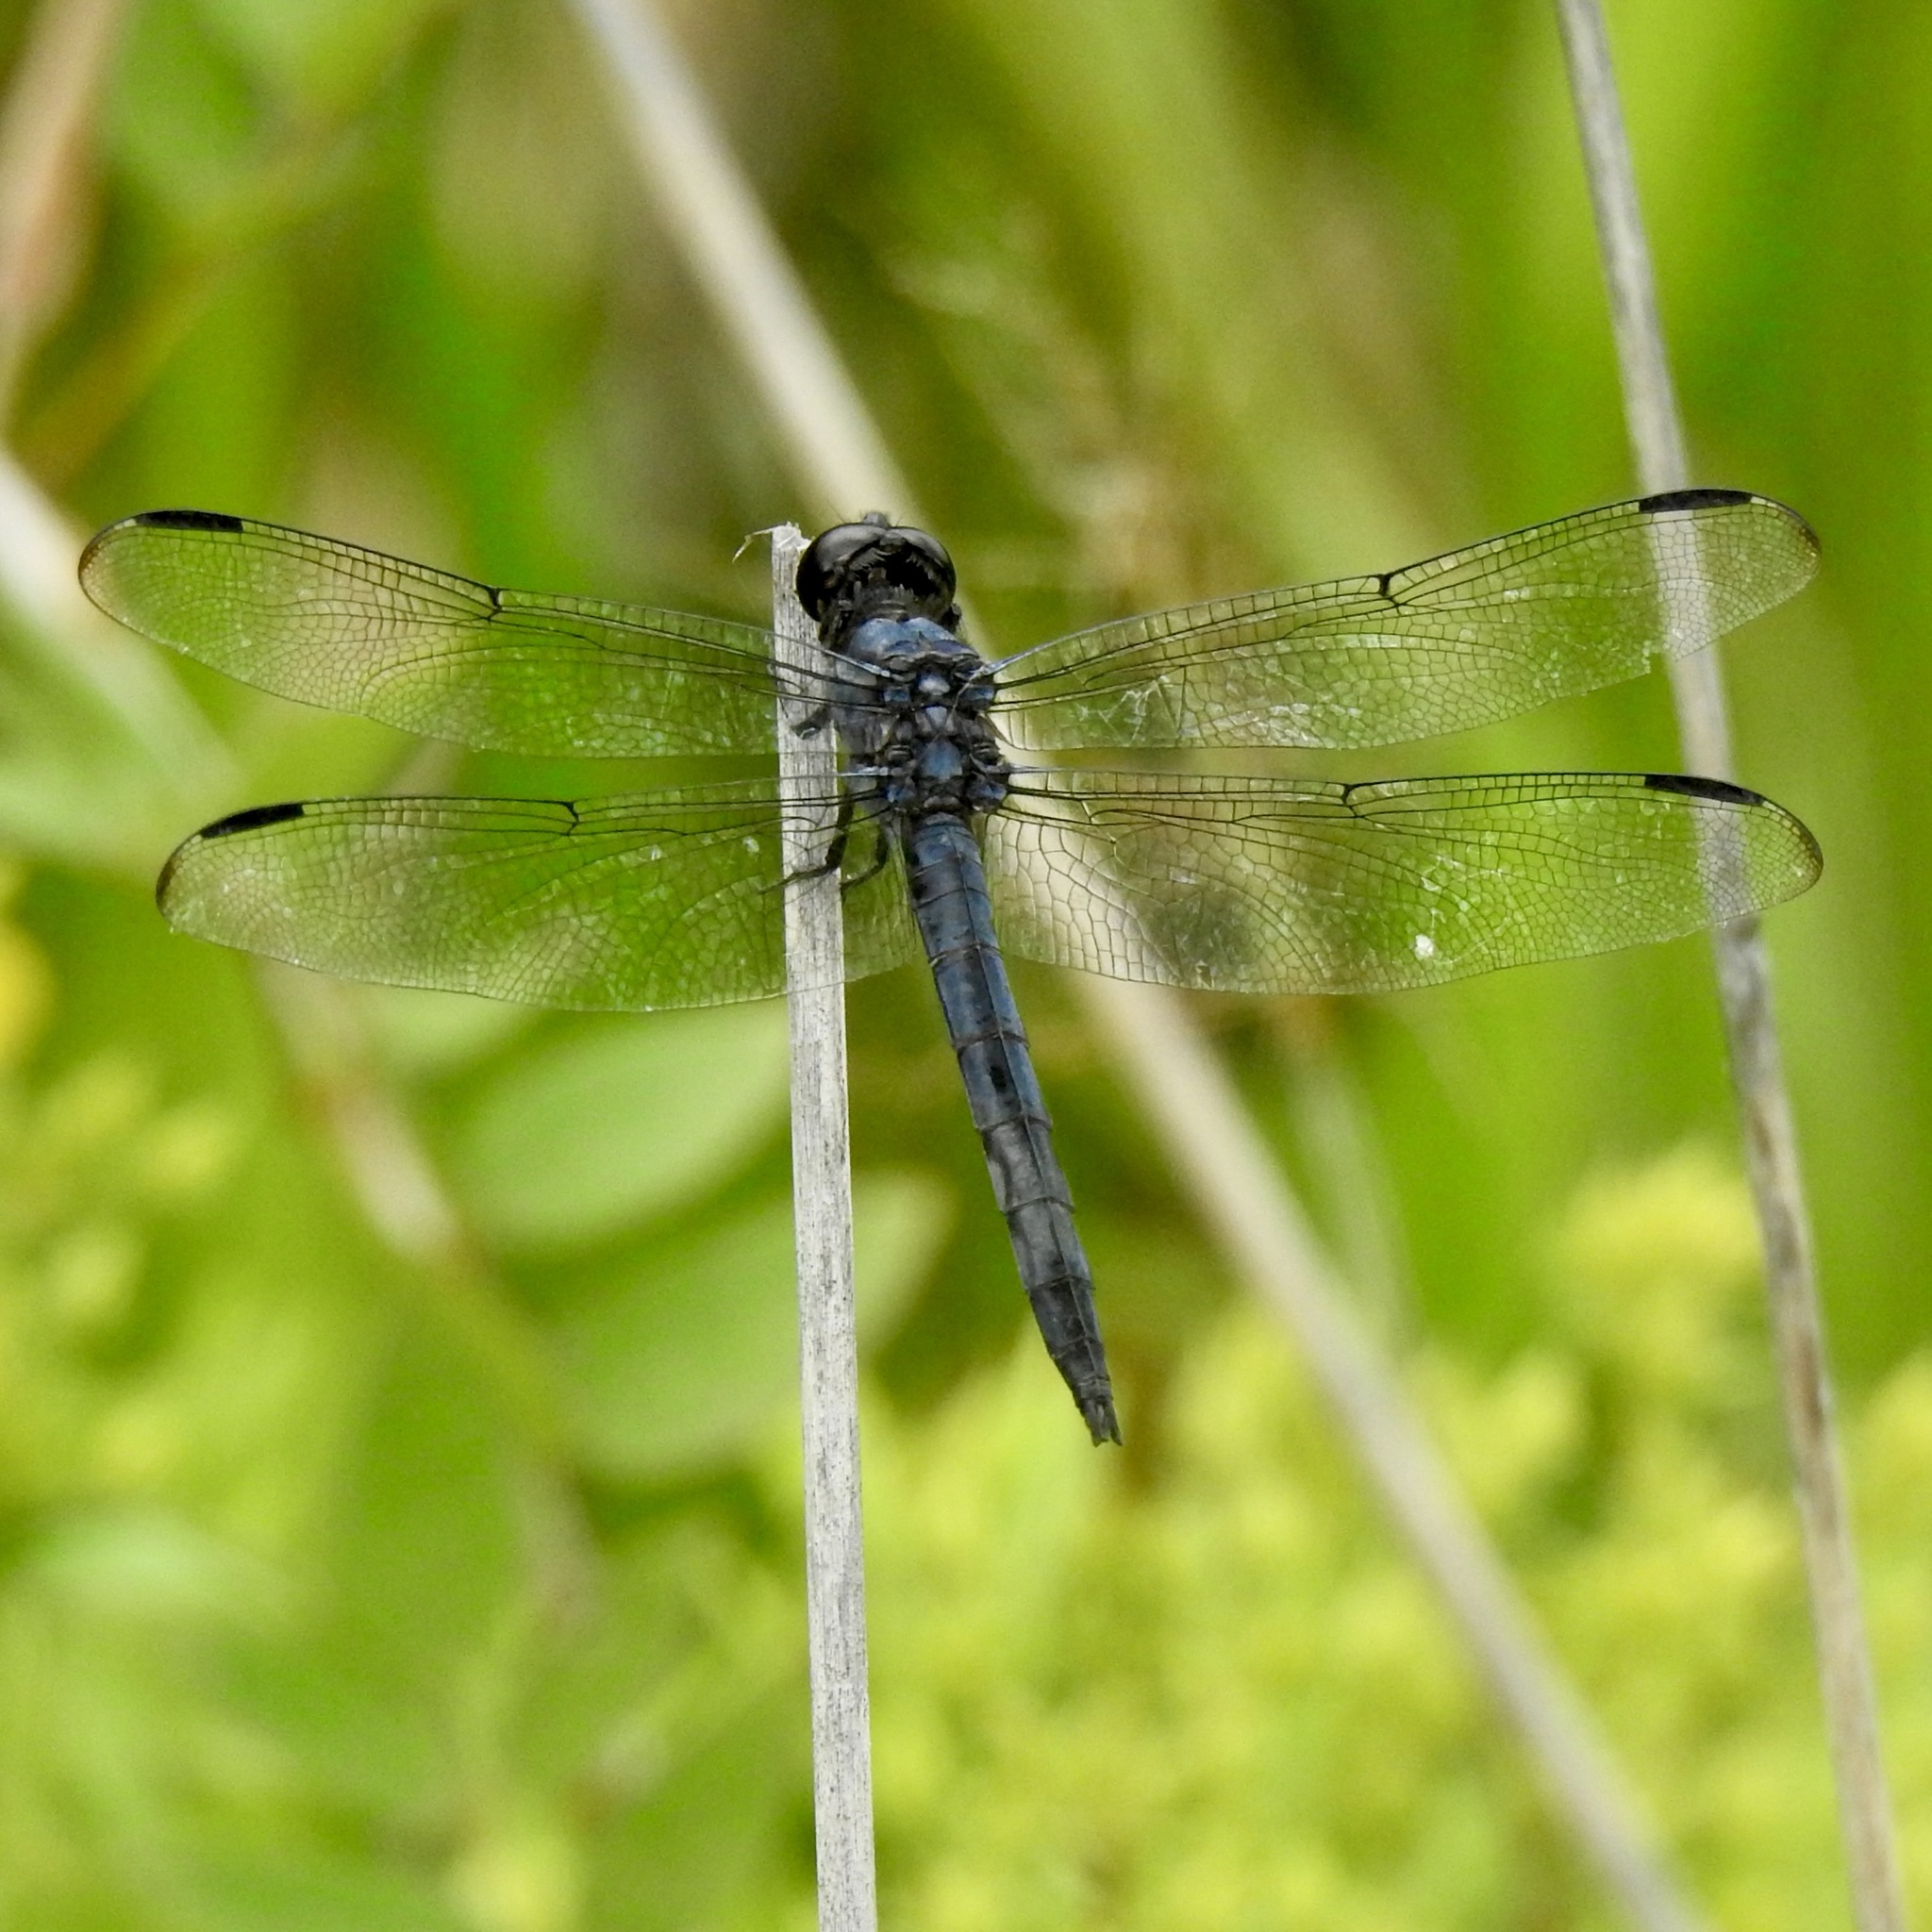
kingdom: Animalia
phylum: Arthropoda
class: Insecta
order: Odonata
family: Libellulidae
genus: Libellula
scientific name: Libellula incesta
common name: Slaty skimmer
